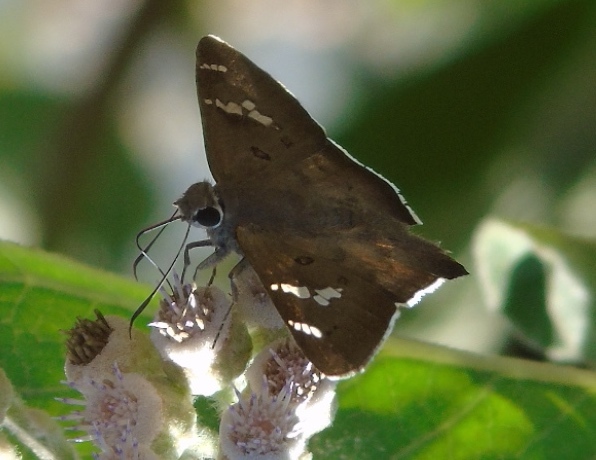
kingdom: Animalia
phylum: Arthropoda
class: Insecta
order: Lepidoptera
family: Hesperiidae
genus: Ectomis
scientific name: Ectomis
